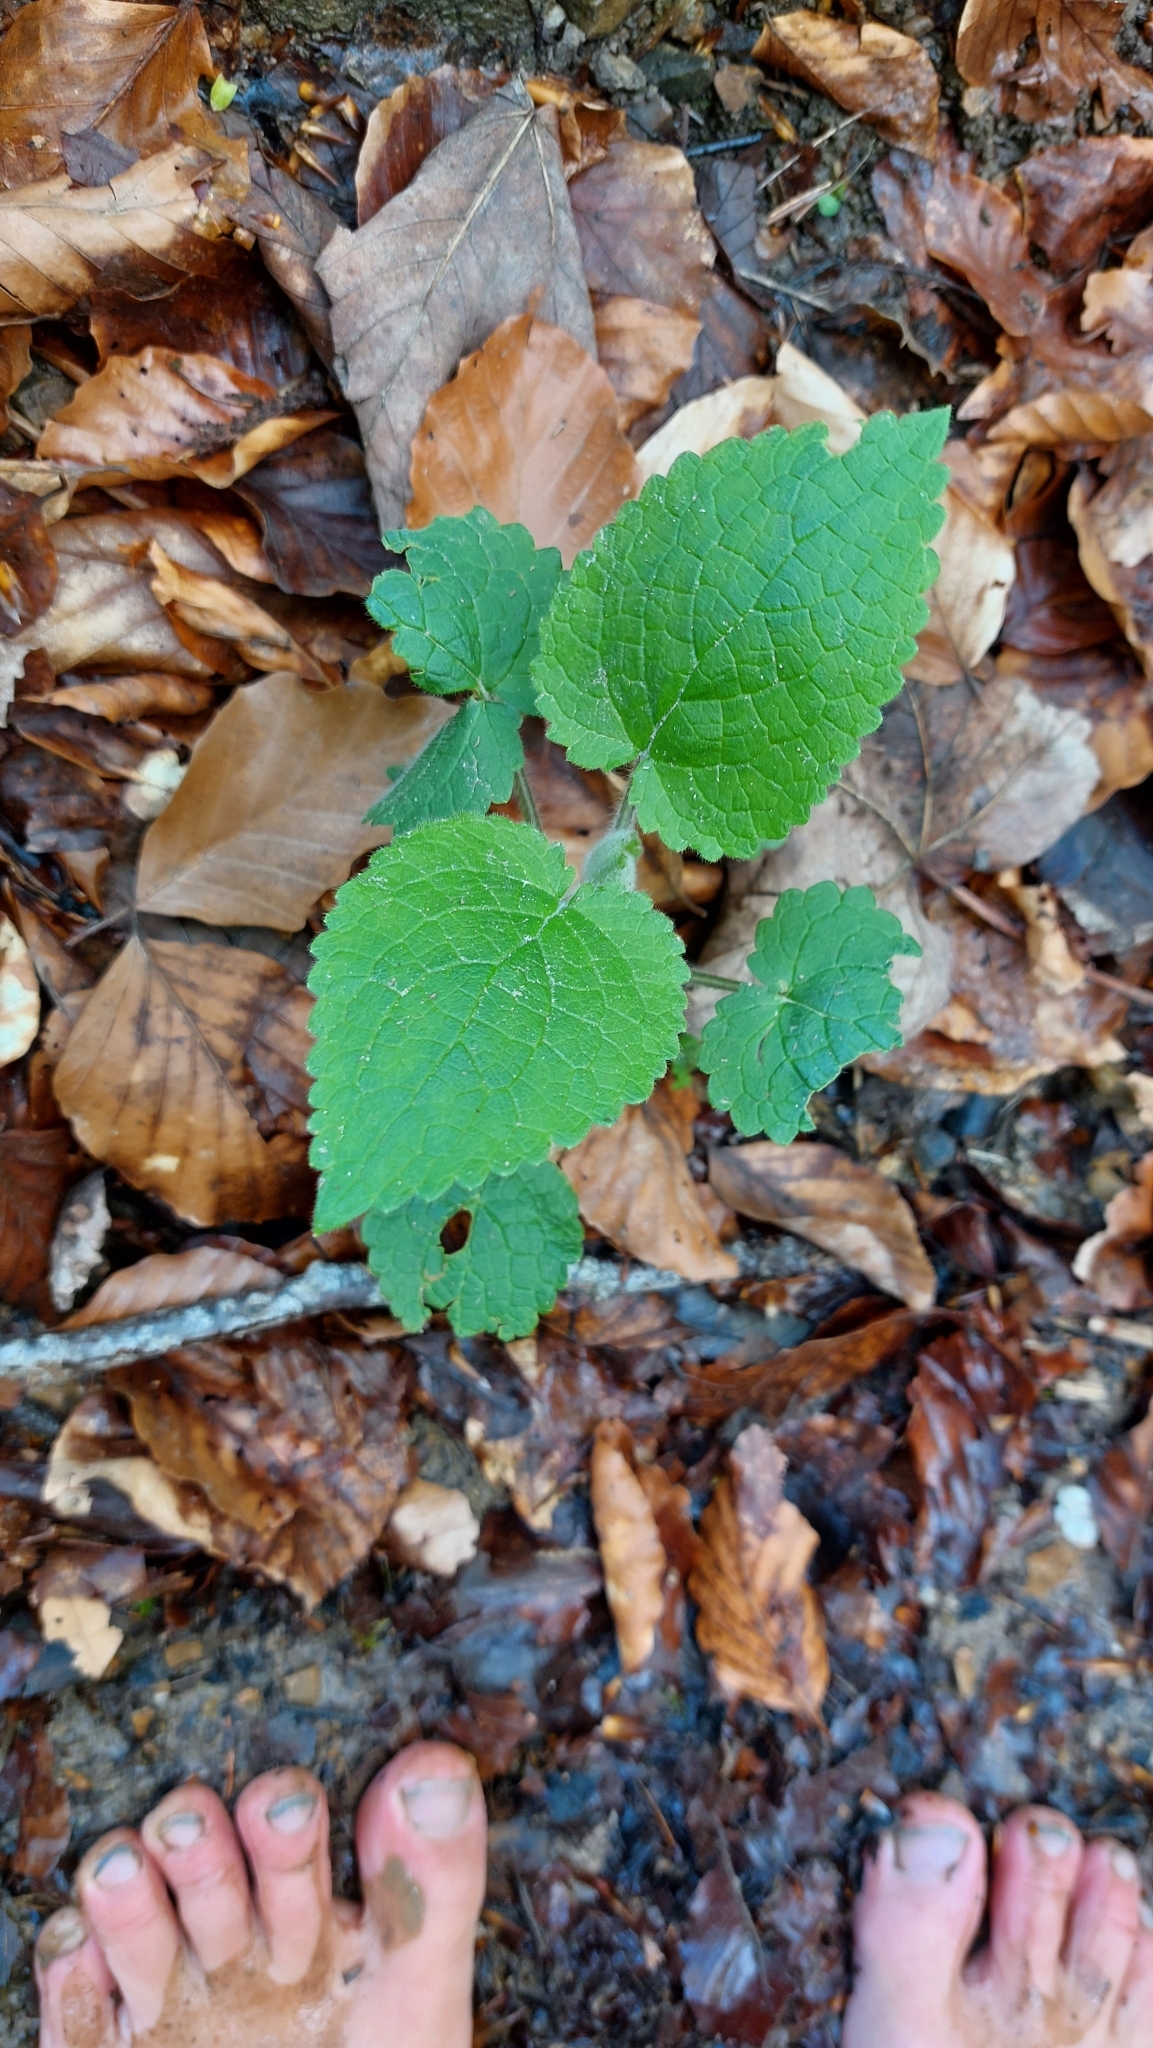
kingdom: Plantae
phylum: Tracheophyta
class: Magnoliopsida
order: Lamiales
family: Lamiaceae
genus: Stachys
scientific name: Stachys sylvatica
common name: Hedge woundwort
